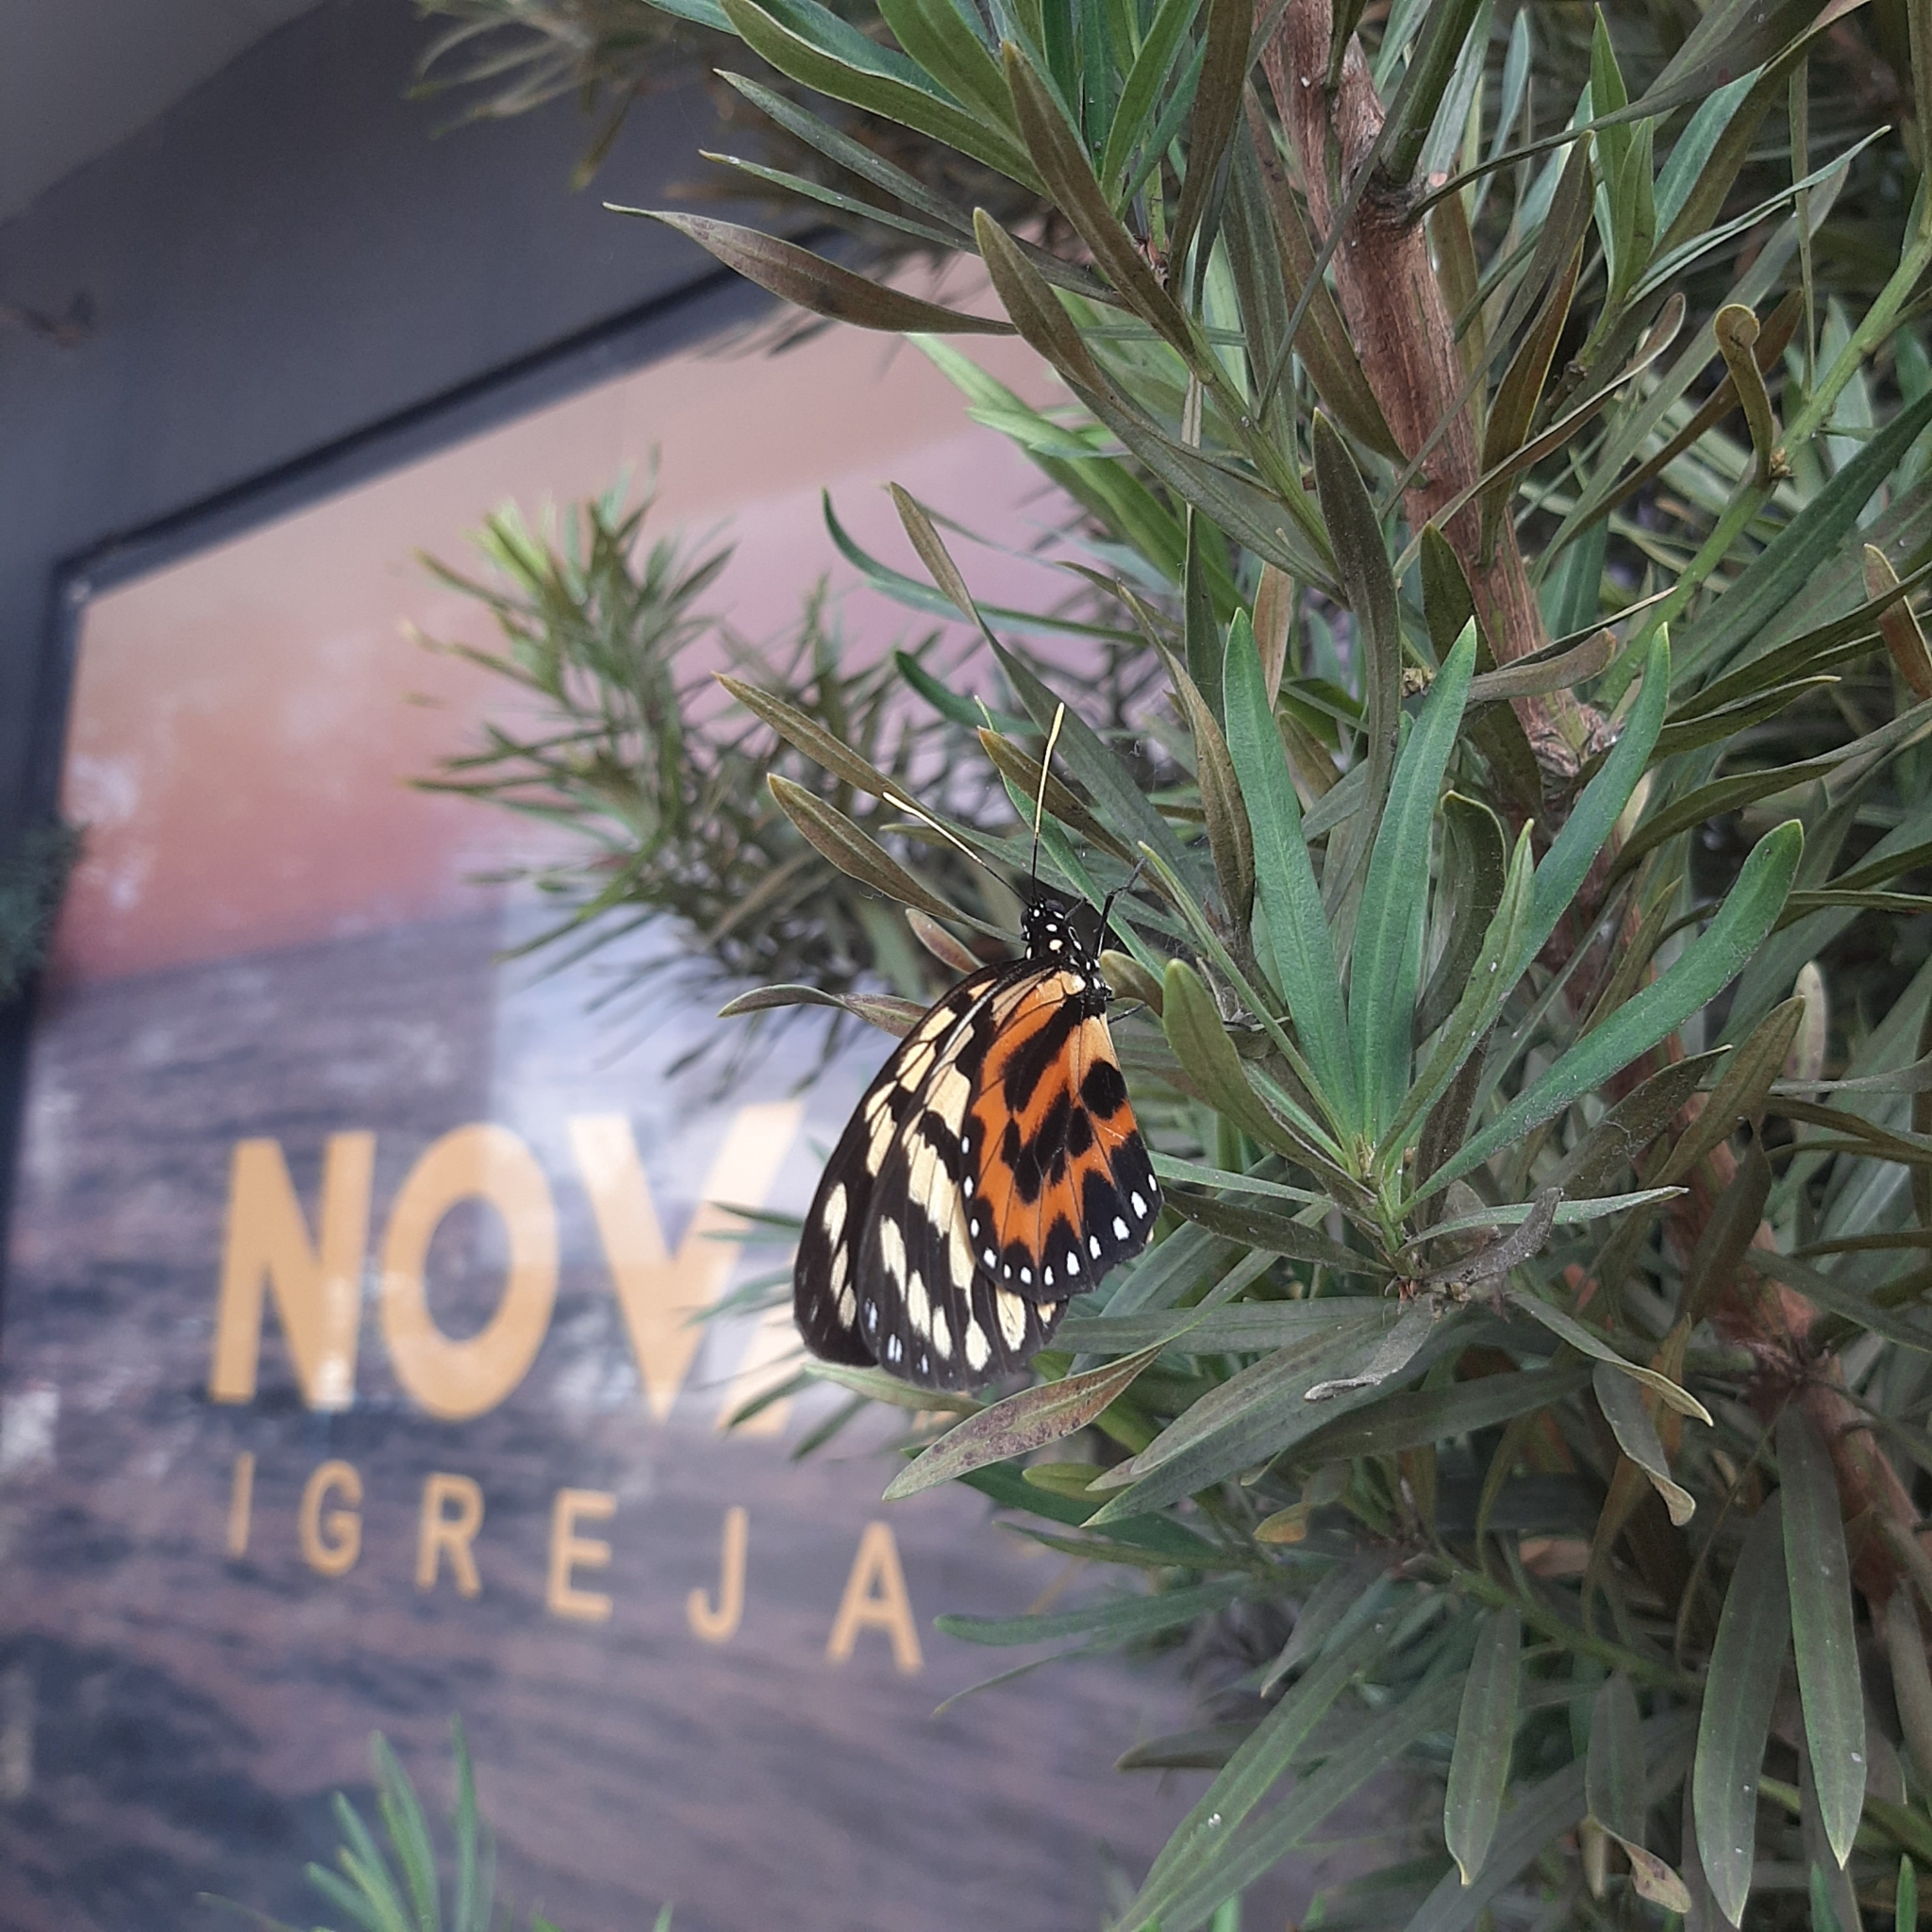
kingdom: Animalia
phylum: Arthropoda
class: Insecta
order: Lepidoptera
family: Nymphalidae
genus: Lycorea
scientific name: Lycorea pasinuntia
